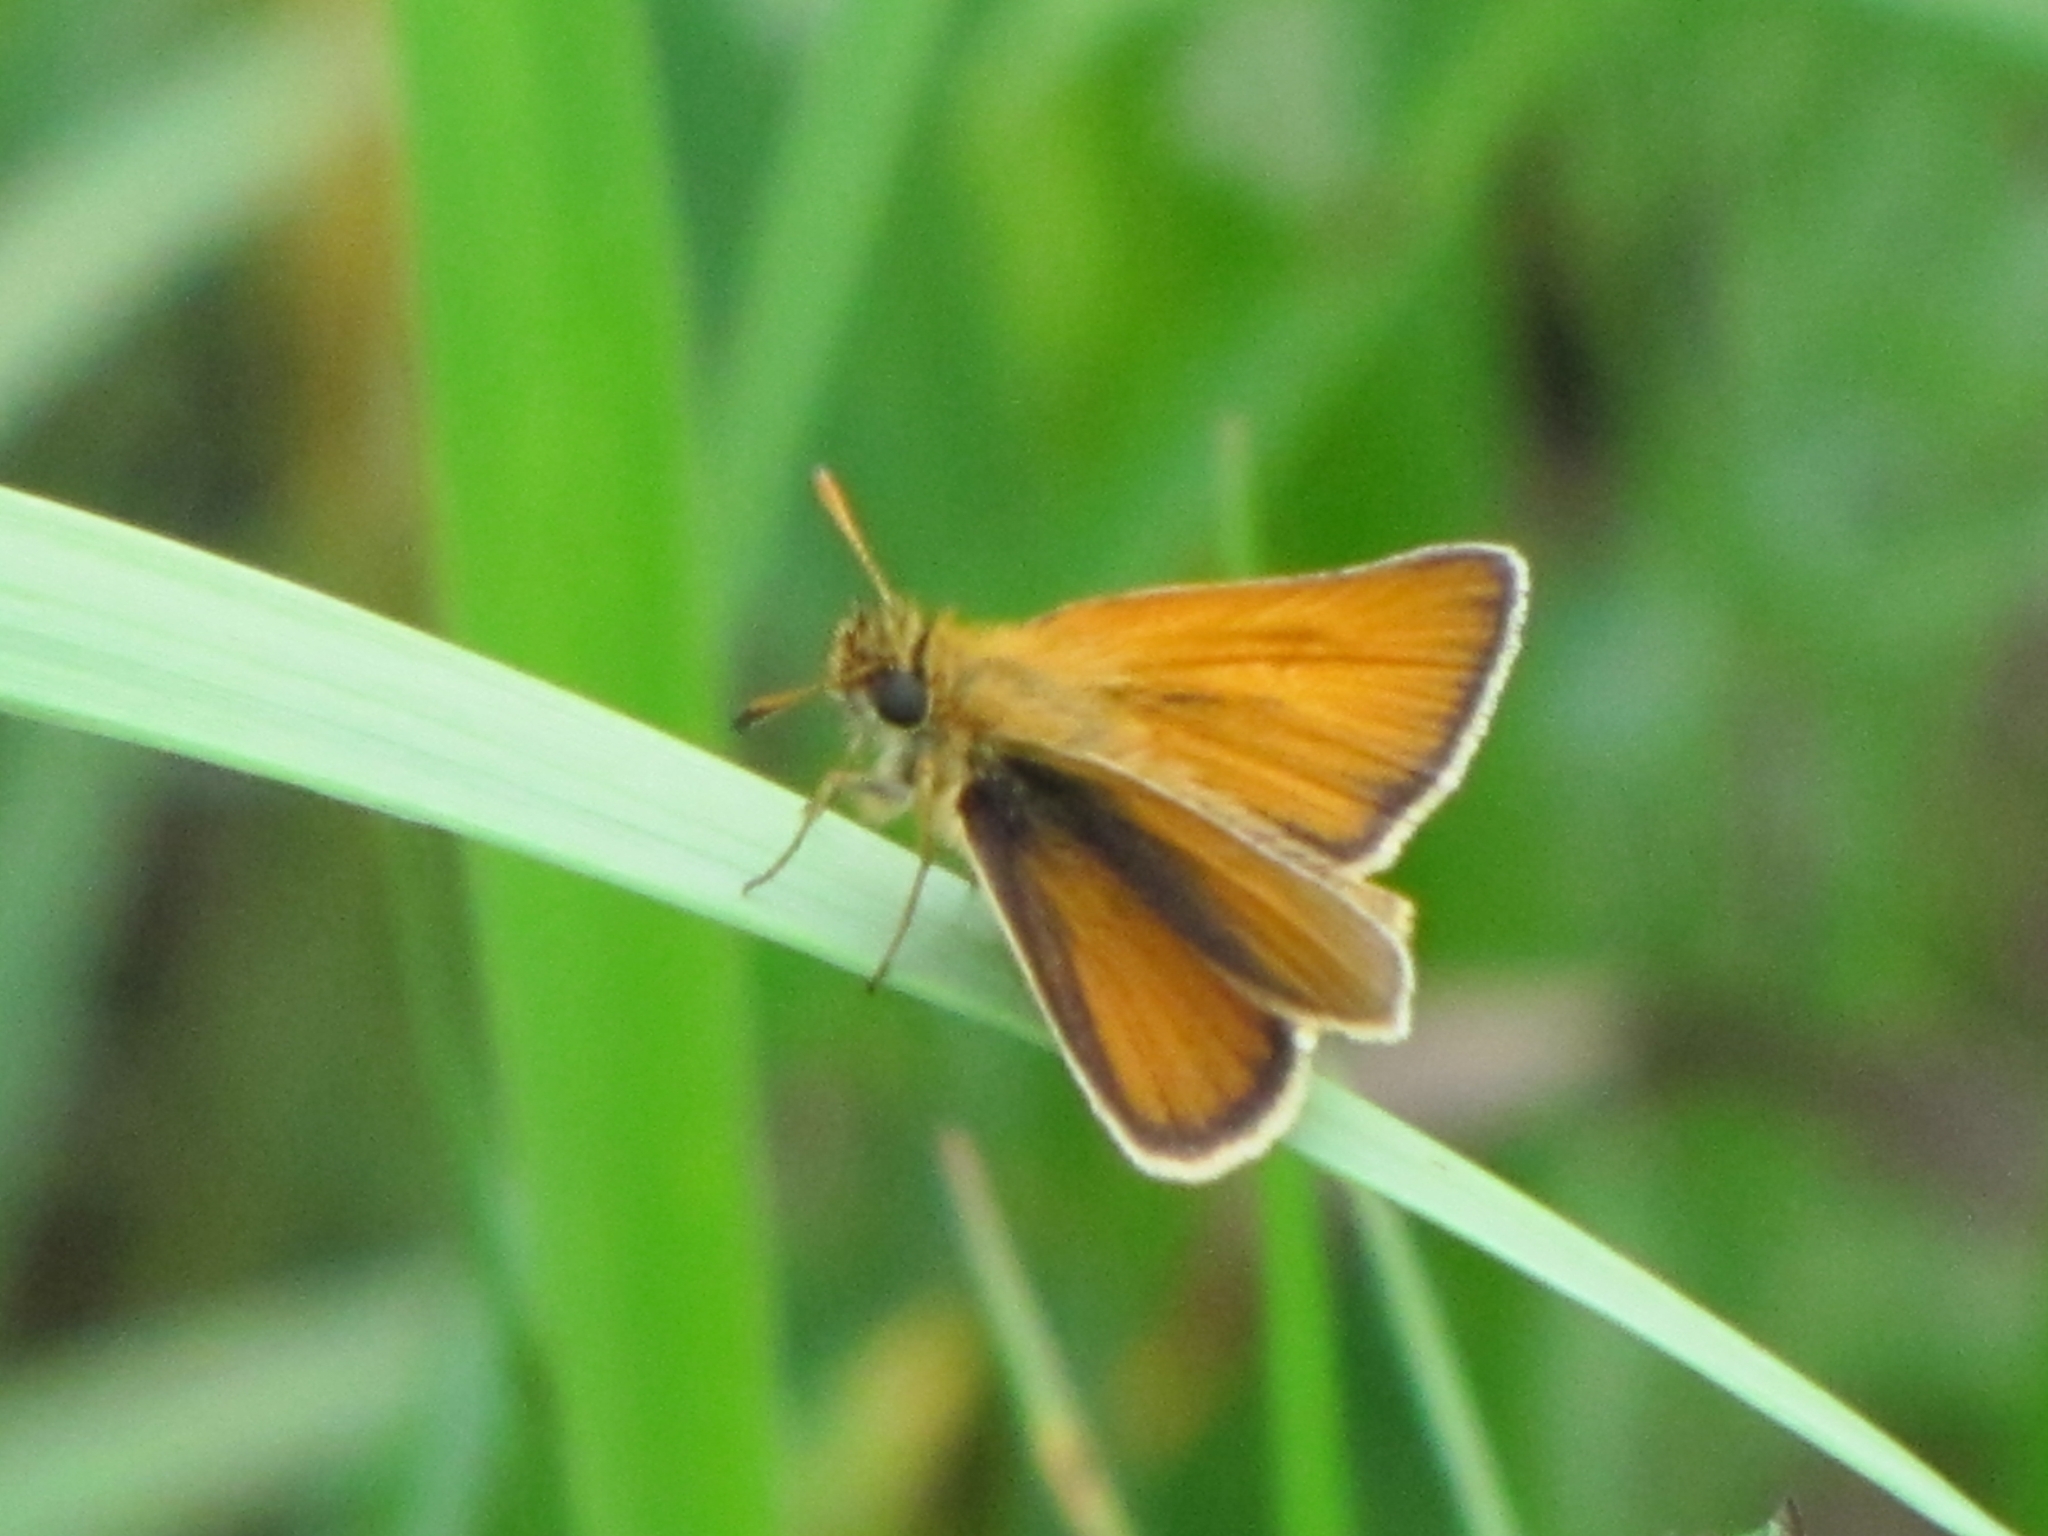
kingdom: Animalia
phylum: Arthropoda
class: Insecta
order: Lepidoptera
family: Hesperiidae
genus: Thymelicus
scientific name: Thymelicus lineola
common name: Essex skipper
